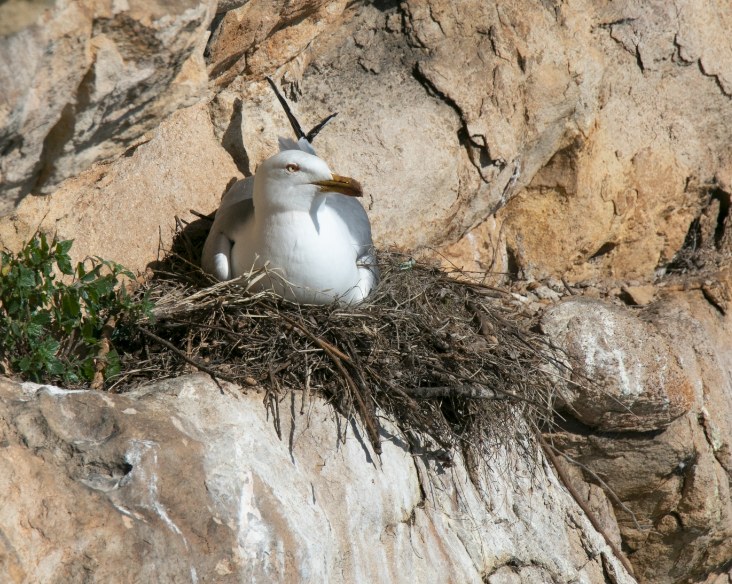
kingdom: Animalia
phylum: Chordata
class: Aves
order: Charadriiformes
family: Laridae
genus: Larus
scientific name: Larus michahellis
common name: Yellow-legged gull
